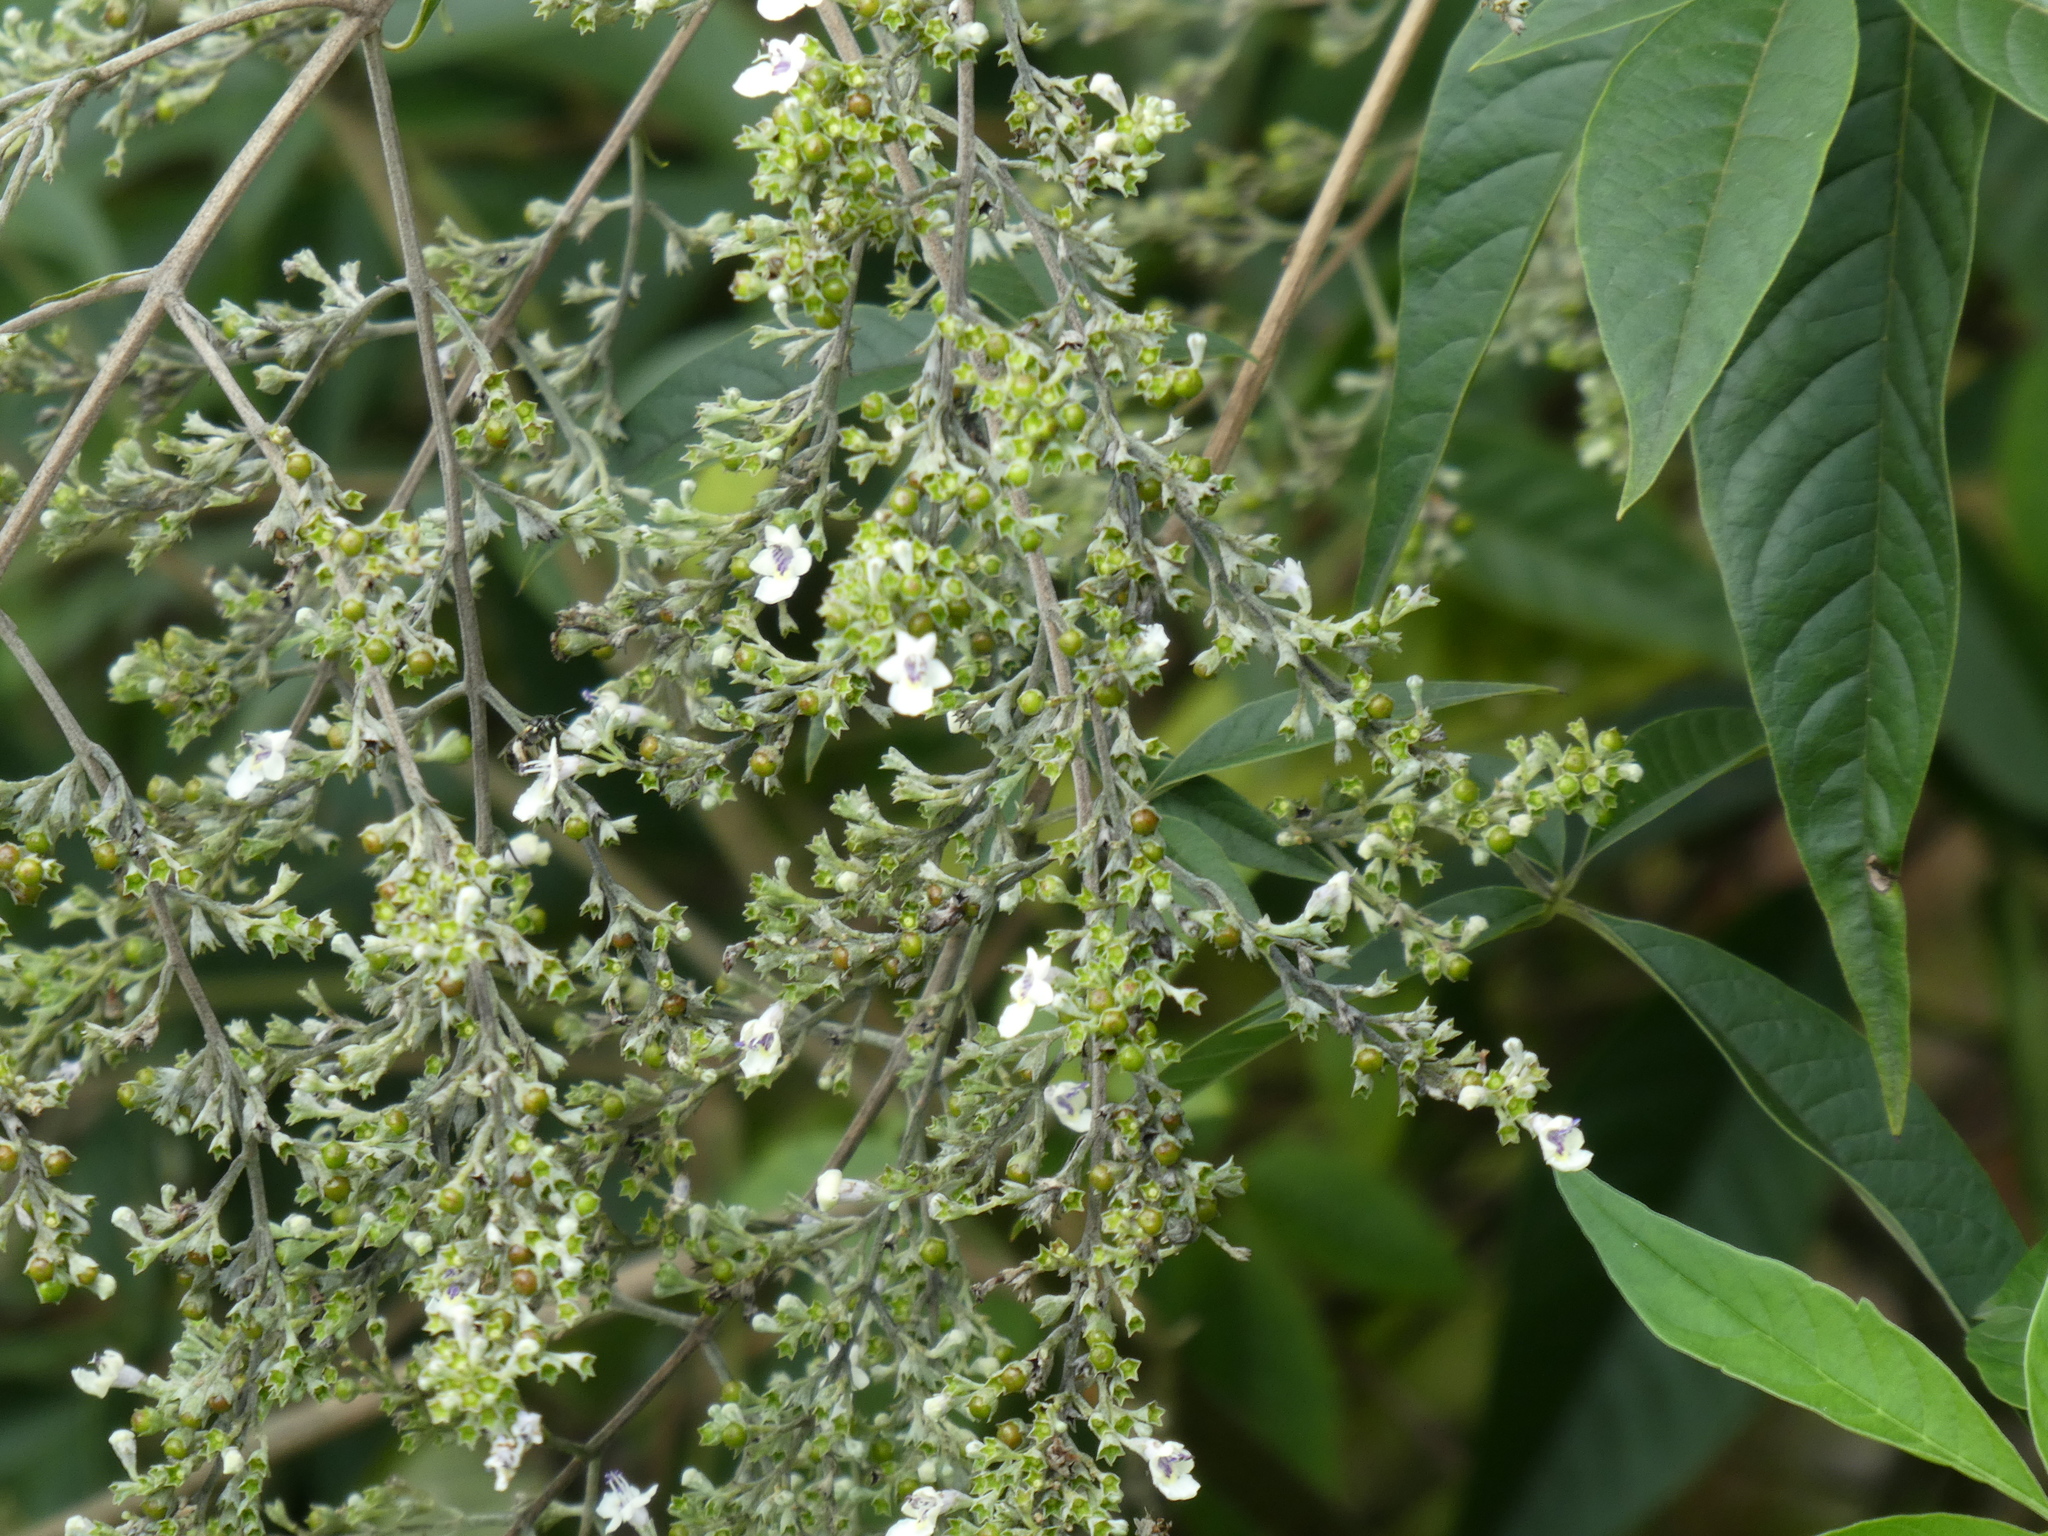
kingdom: Plantae
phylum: Tracheophyta
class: Magnoliopsida
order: Lamiales
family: Lamiaceae
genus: Vitex
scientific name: Vitex negundo
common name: Chinese chastetree
